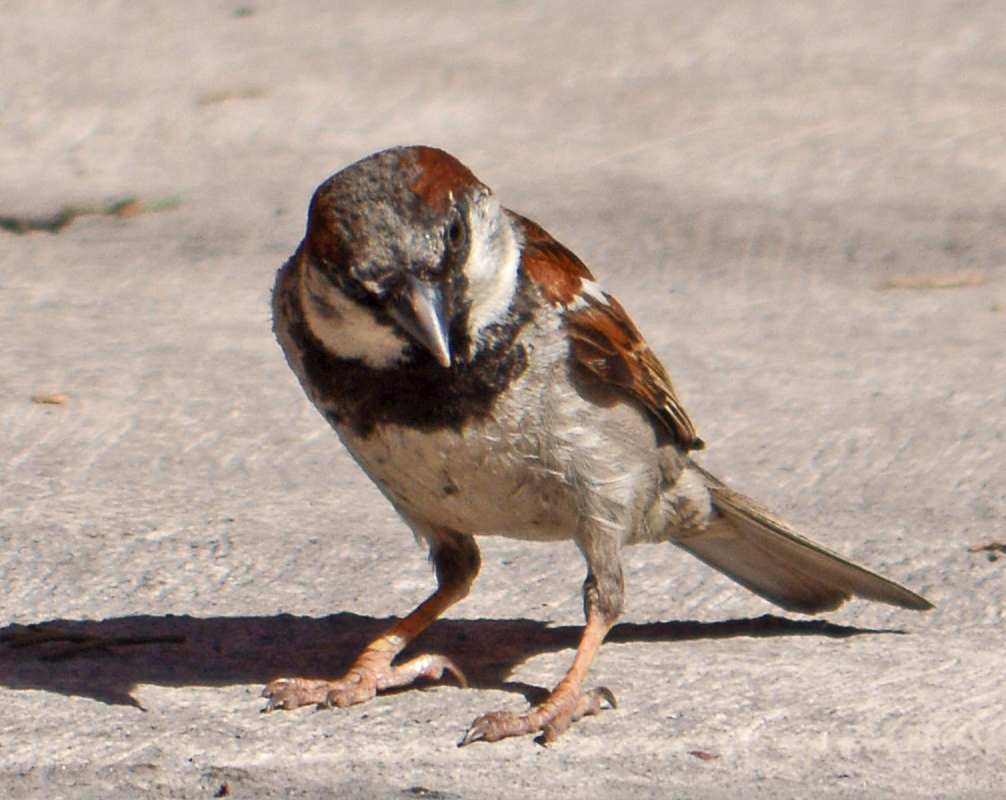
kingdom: Animalia
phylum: Chordata
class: Aves
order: Passeriformes
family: Passeridae
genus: Passer
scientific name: Passer domesticus
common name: House sparrow
